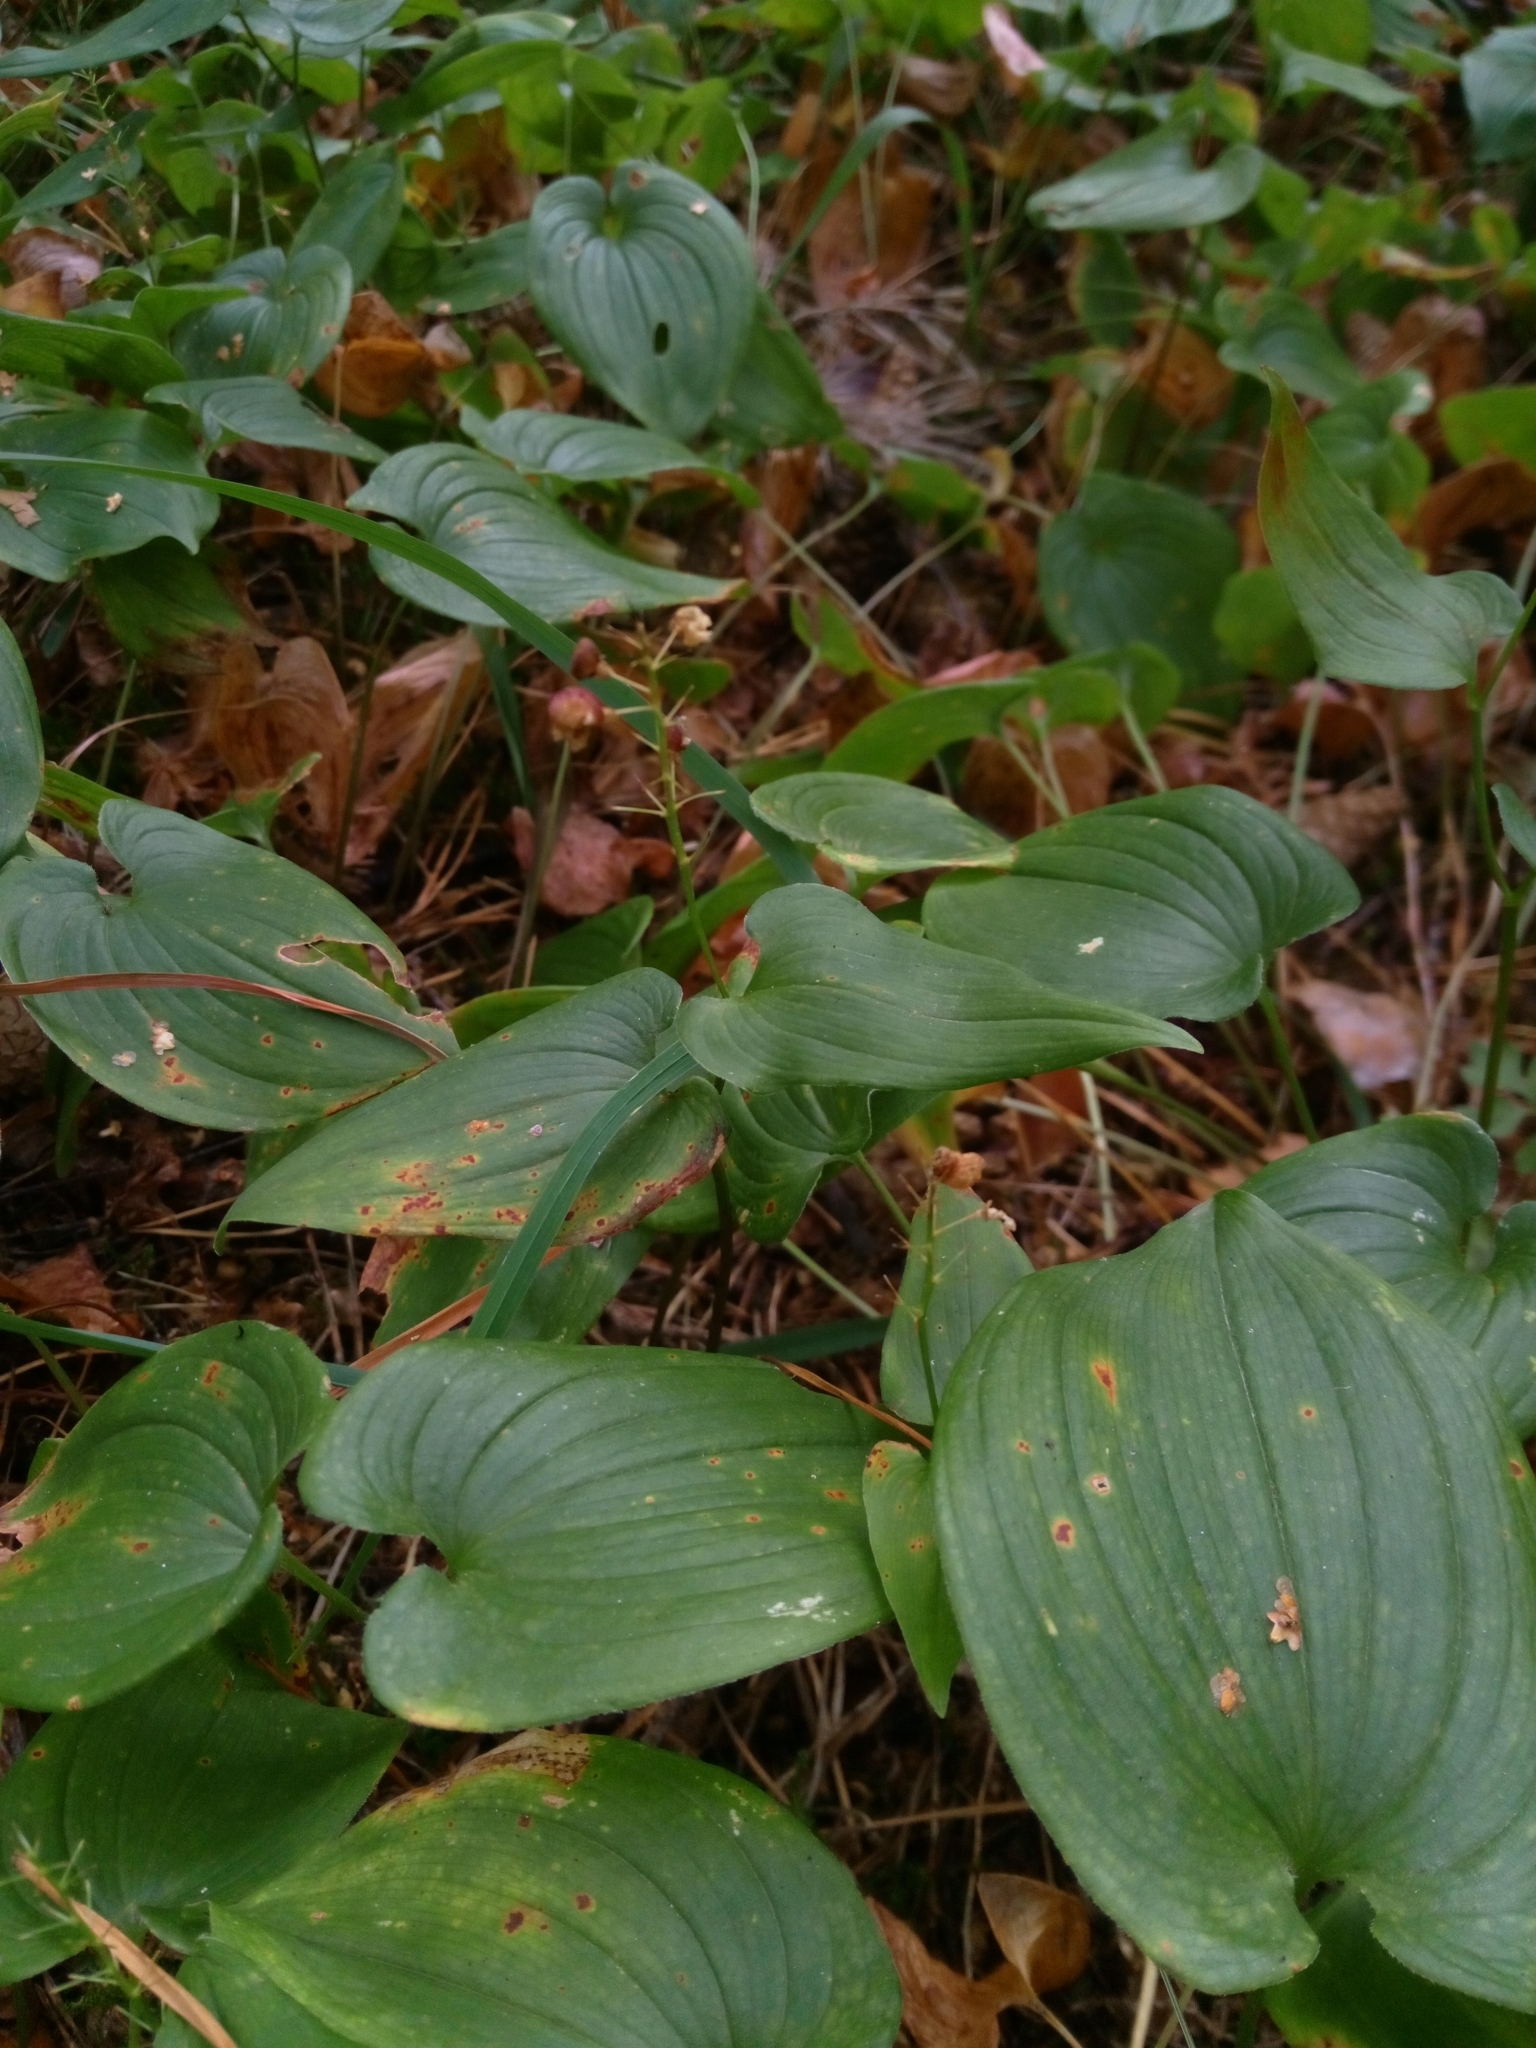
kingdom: Plantae
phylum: Tracheophyta
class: Liliopsida
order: Asparagales
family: Asparagaceae
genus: Maianthemum
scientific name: Maianthemum bifolium
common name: May lily
